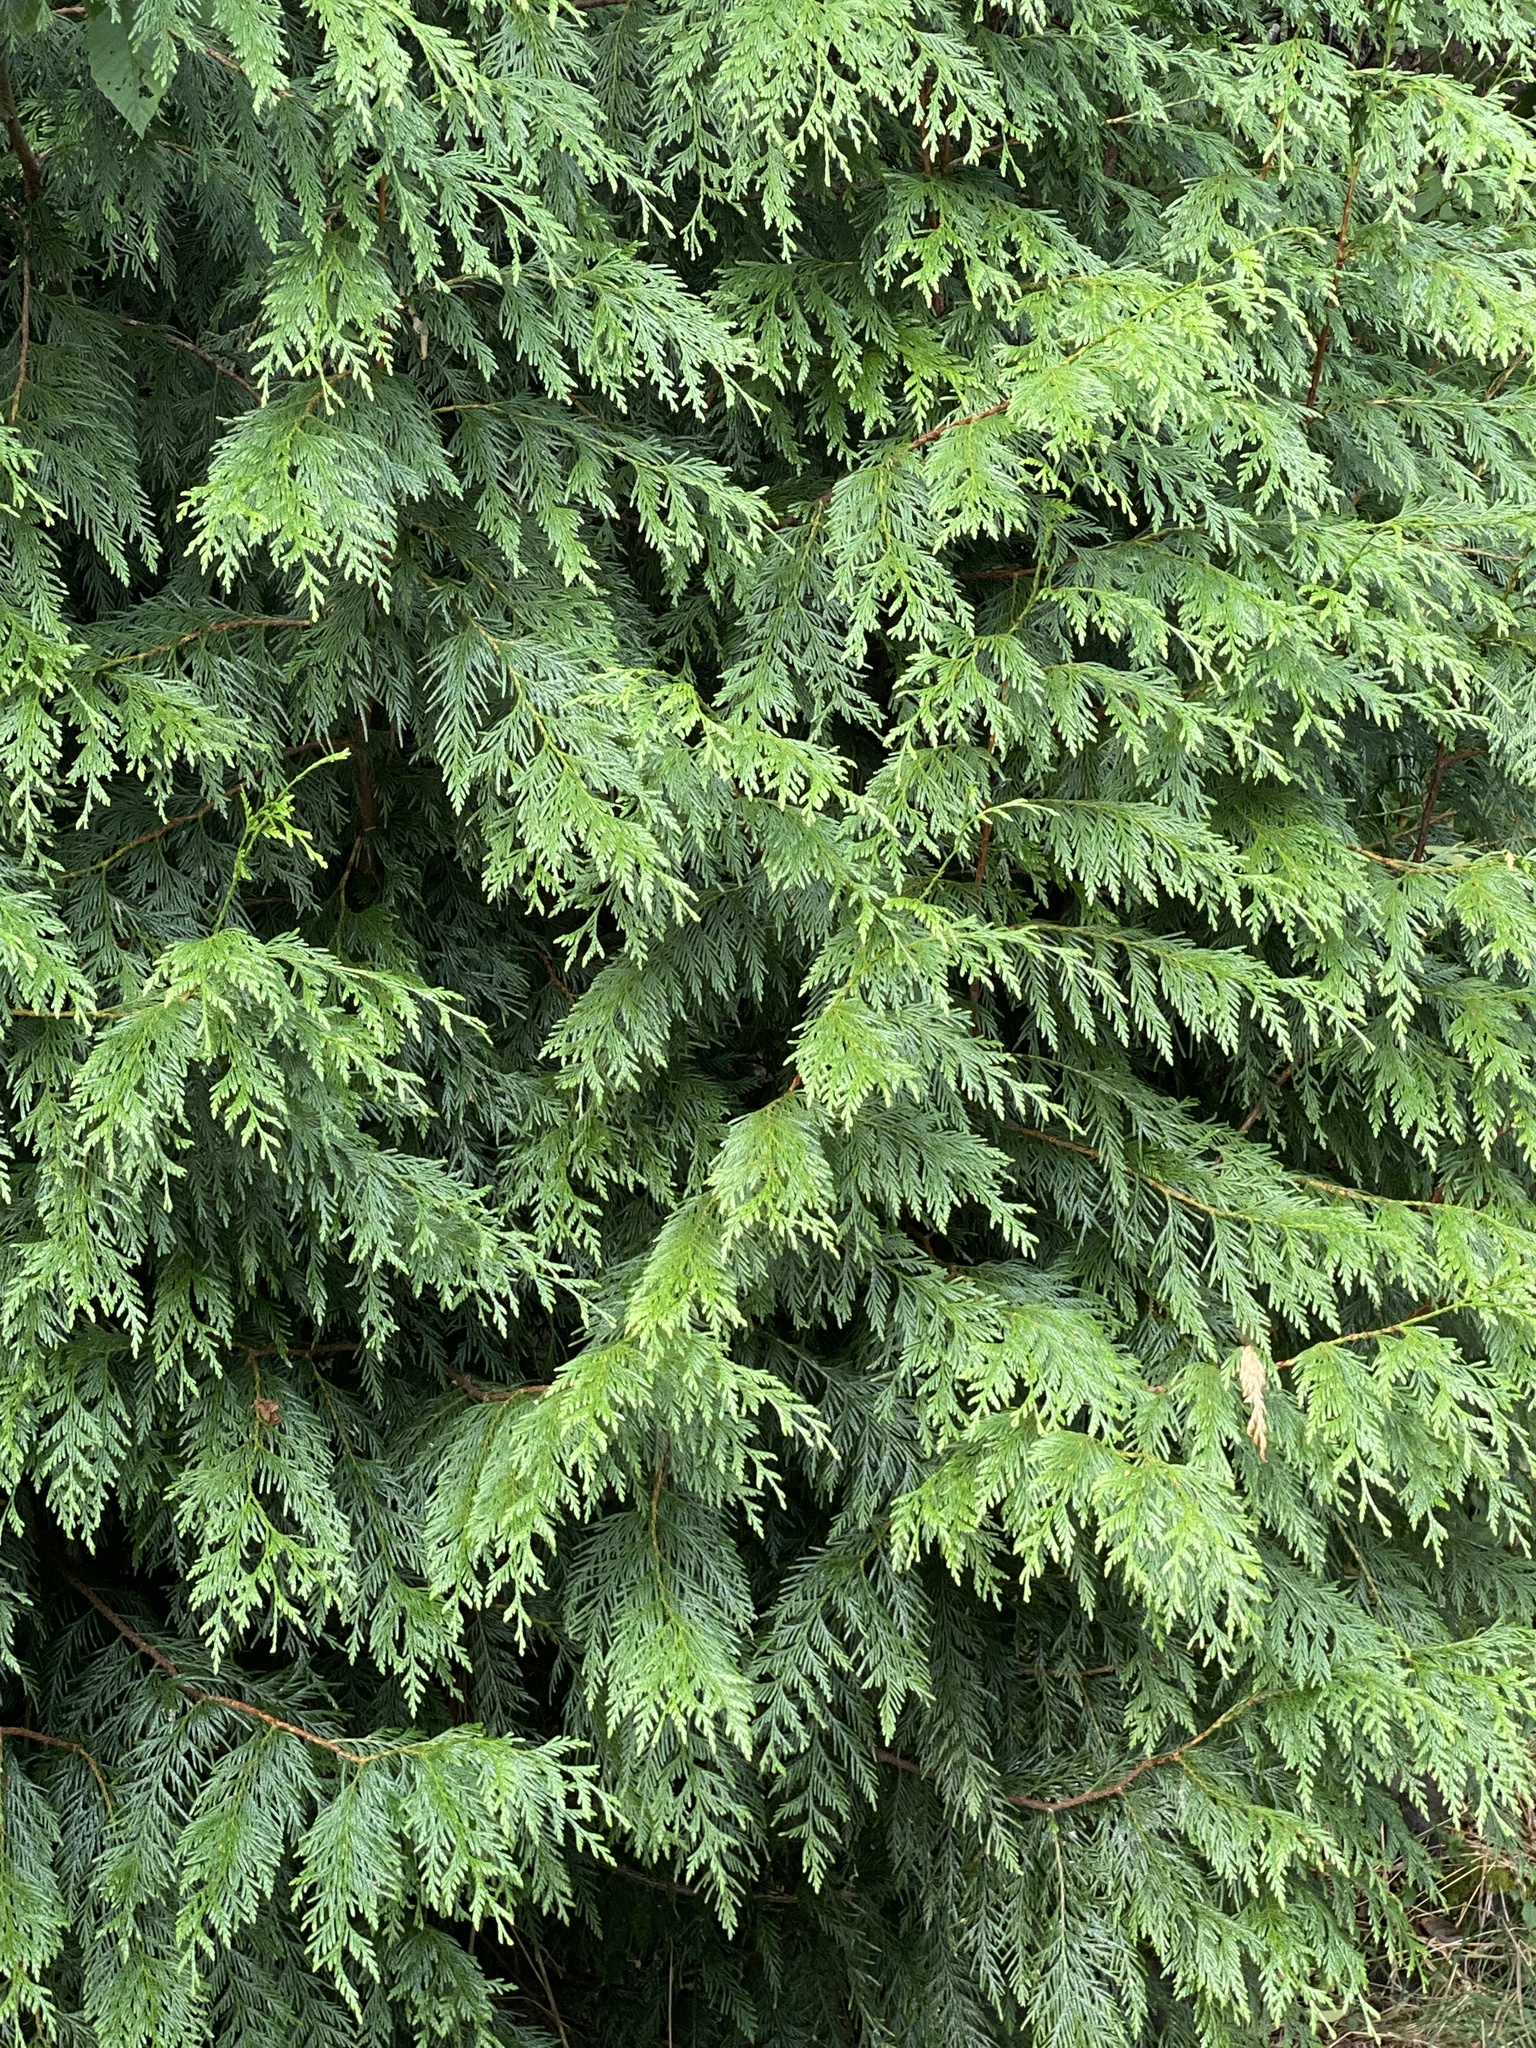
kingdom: Plantae
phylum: Tracheophyta
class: Pinopsida
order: Pinales
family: Cupressaceae
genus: Thuja
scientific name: Thuja plicata
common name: Western red-cedar
